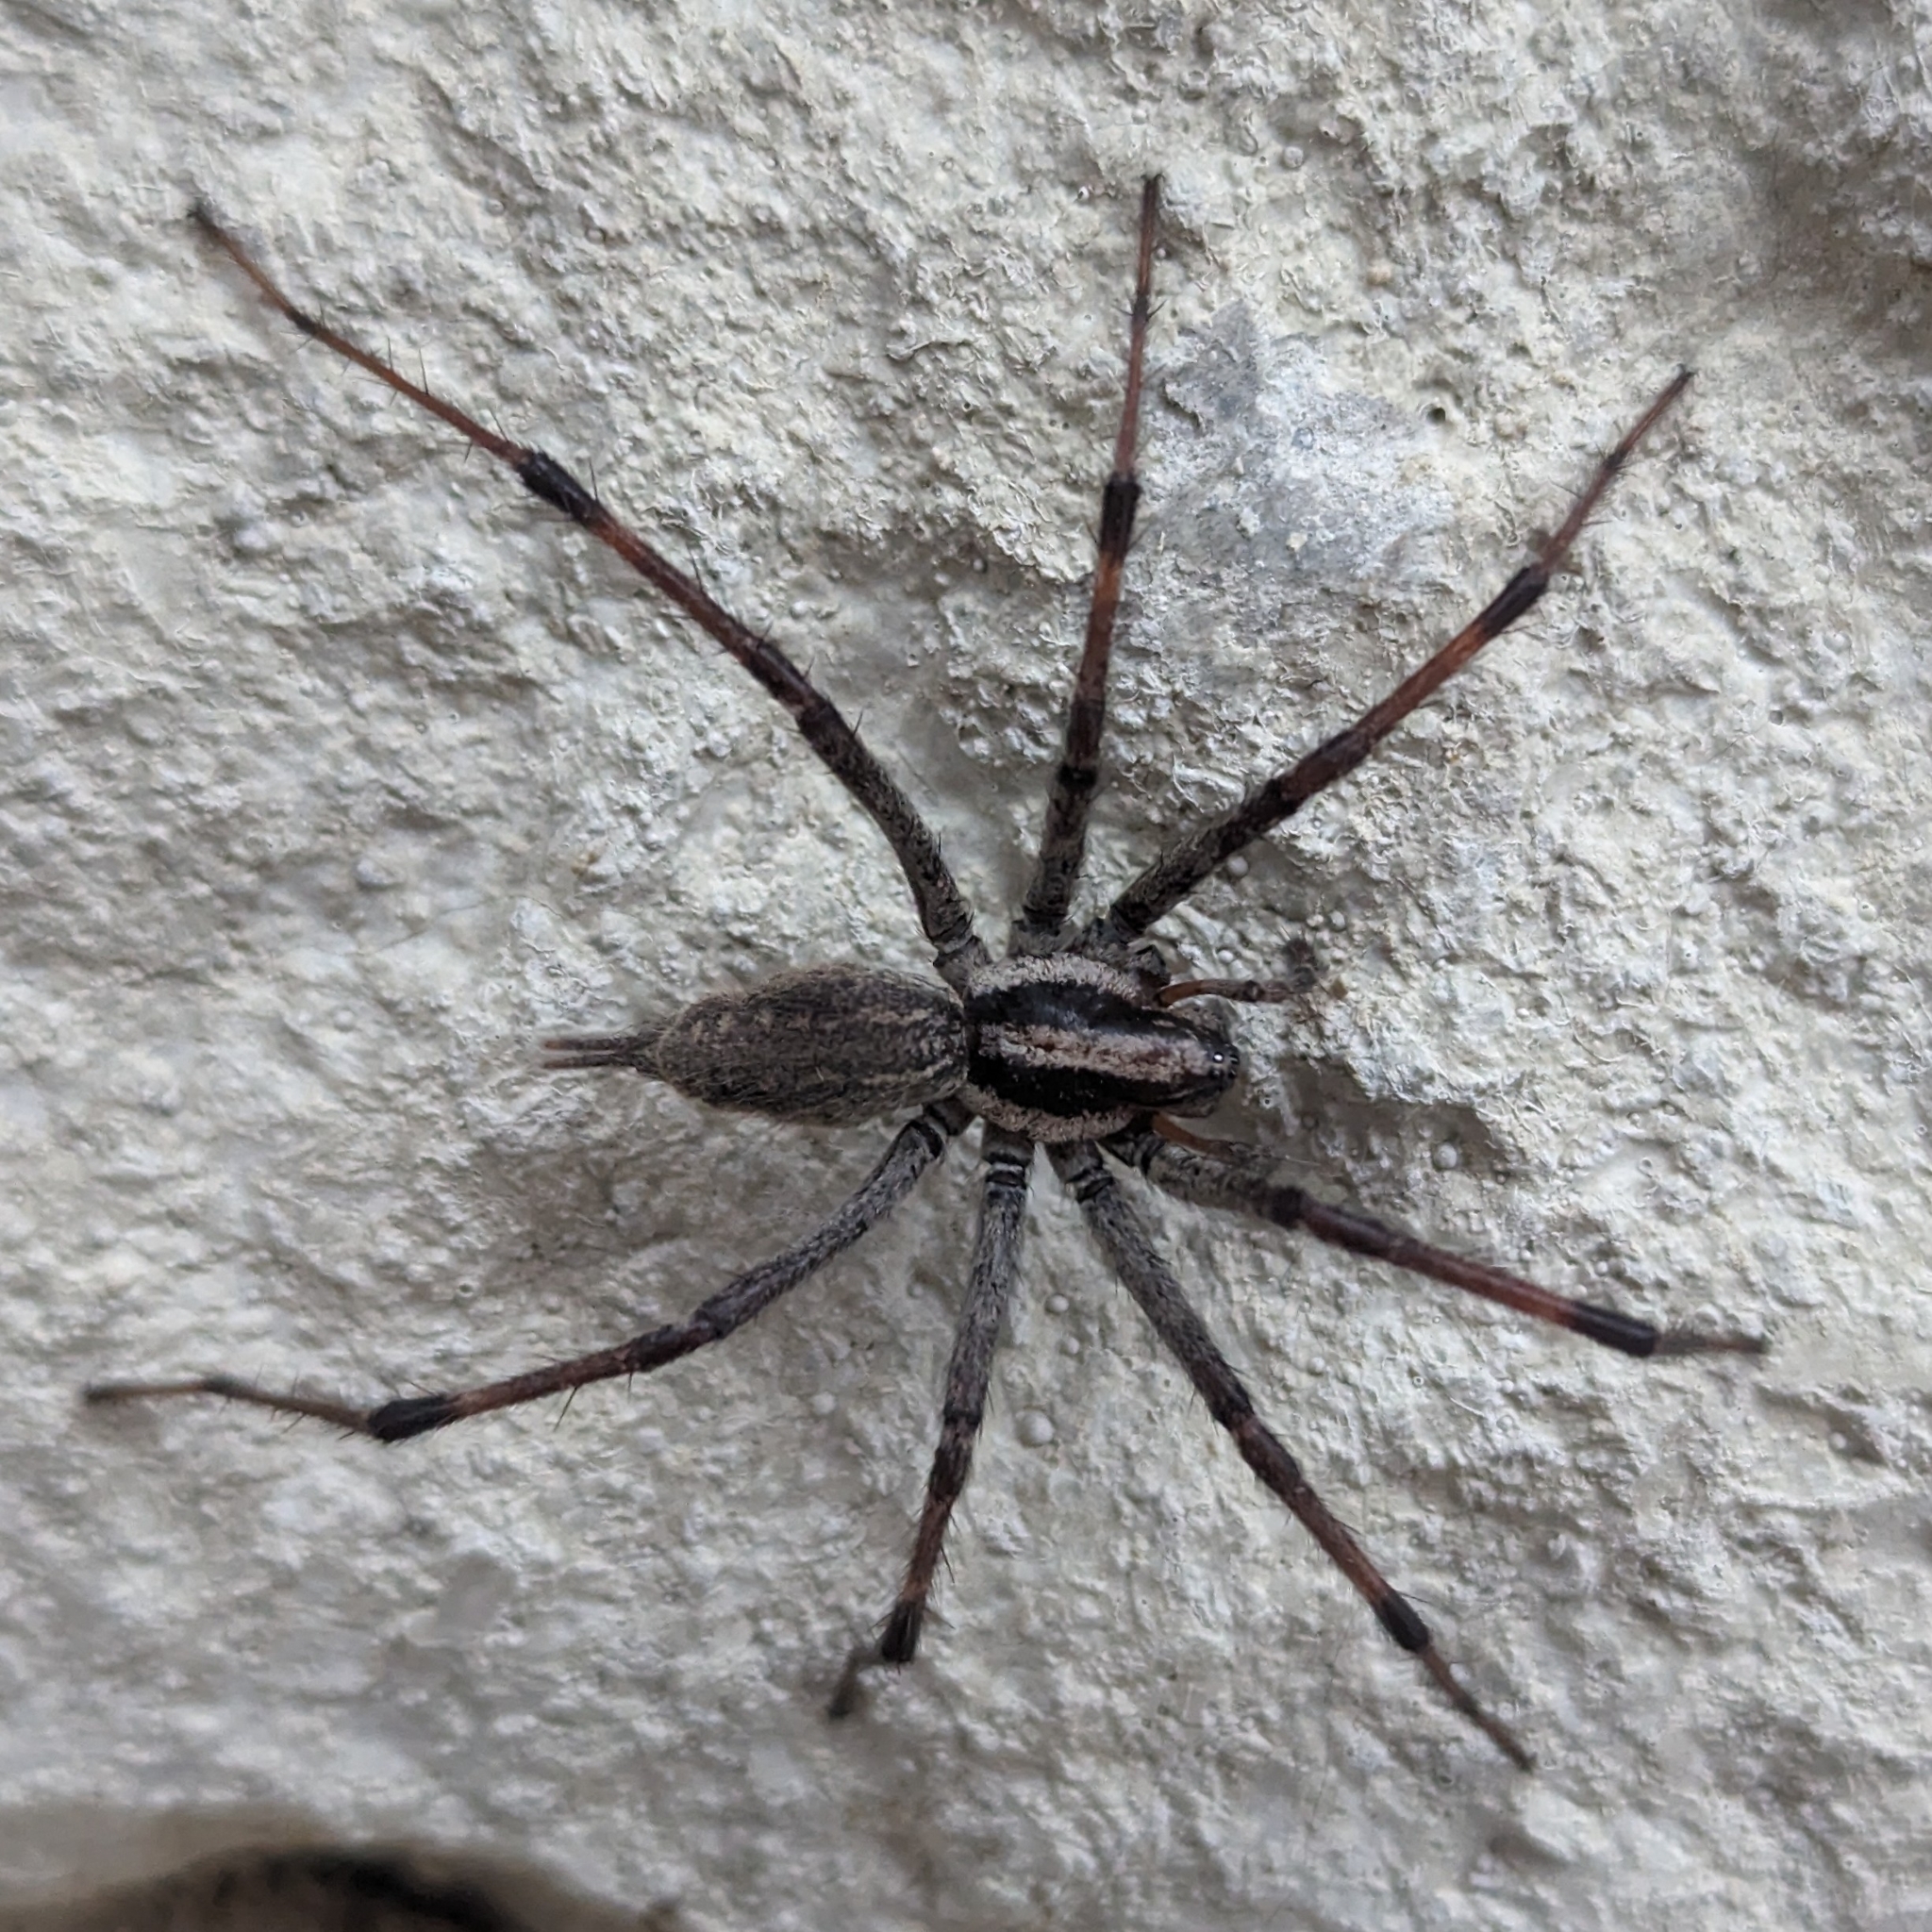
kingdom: Animalia
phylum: Arthropoda
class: Arachnida
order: Araneae
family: Agelenidae
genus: Agelenopsis
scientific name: Agelenopsis
